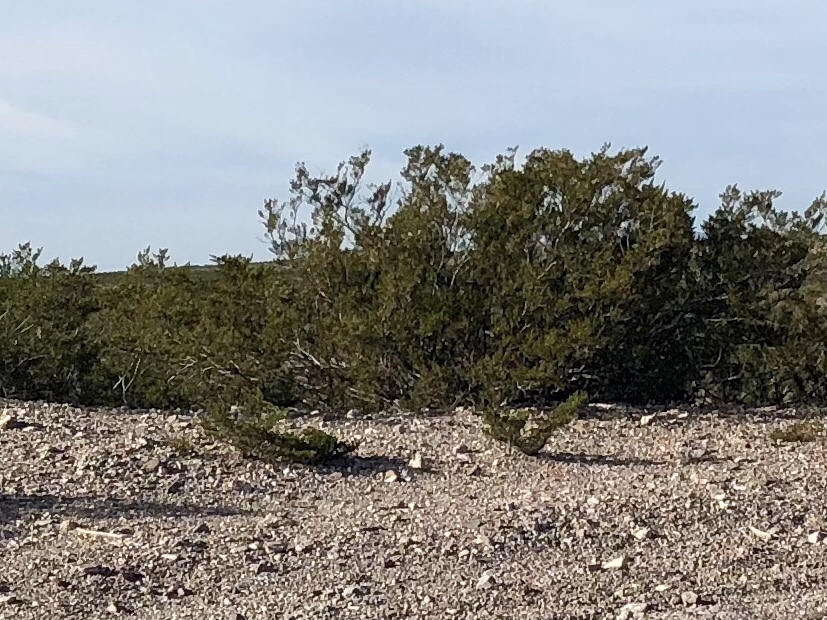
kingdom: Plantae
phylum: Tracheophyta
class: Magnoliopsida
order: Zygophyllales
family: Zygophyllaceae
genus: Larrea
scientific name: Larrea tridentata
